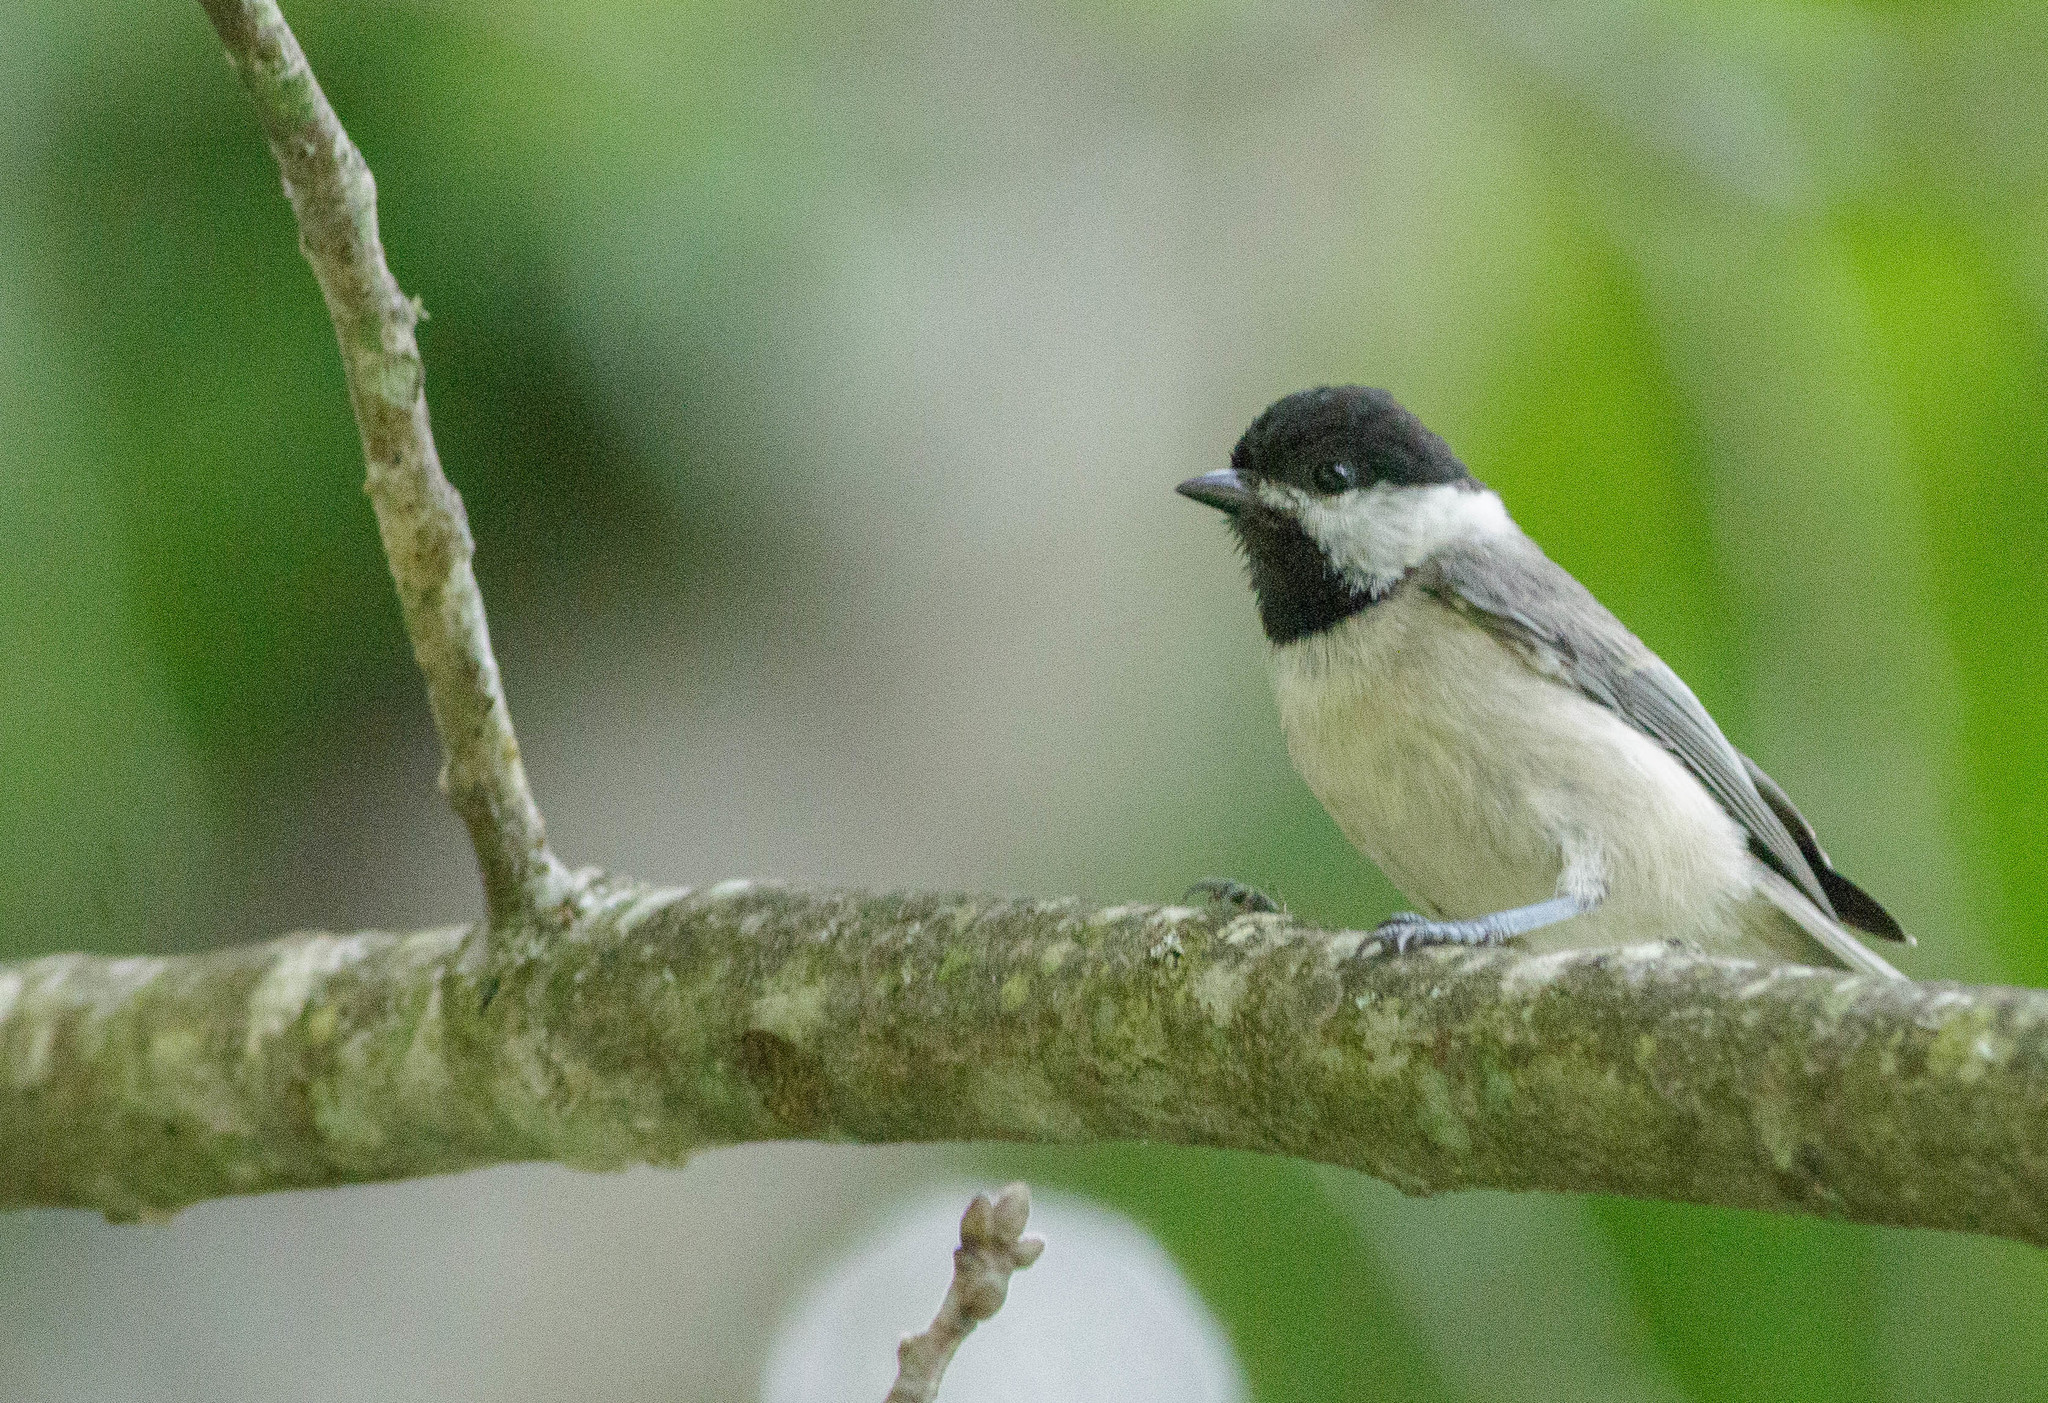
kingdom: Animalia
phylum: Chordata
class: Aves
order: Passeriformes
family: Paridae
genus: Poecile
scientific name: Poecile carolinensis
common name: Carolina chickadee
